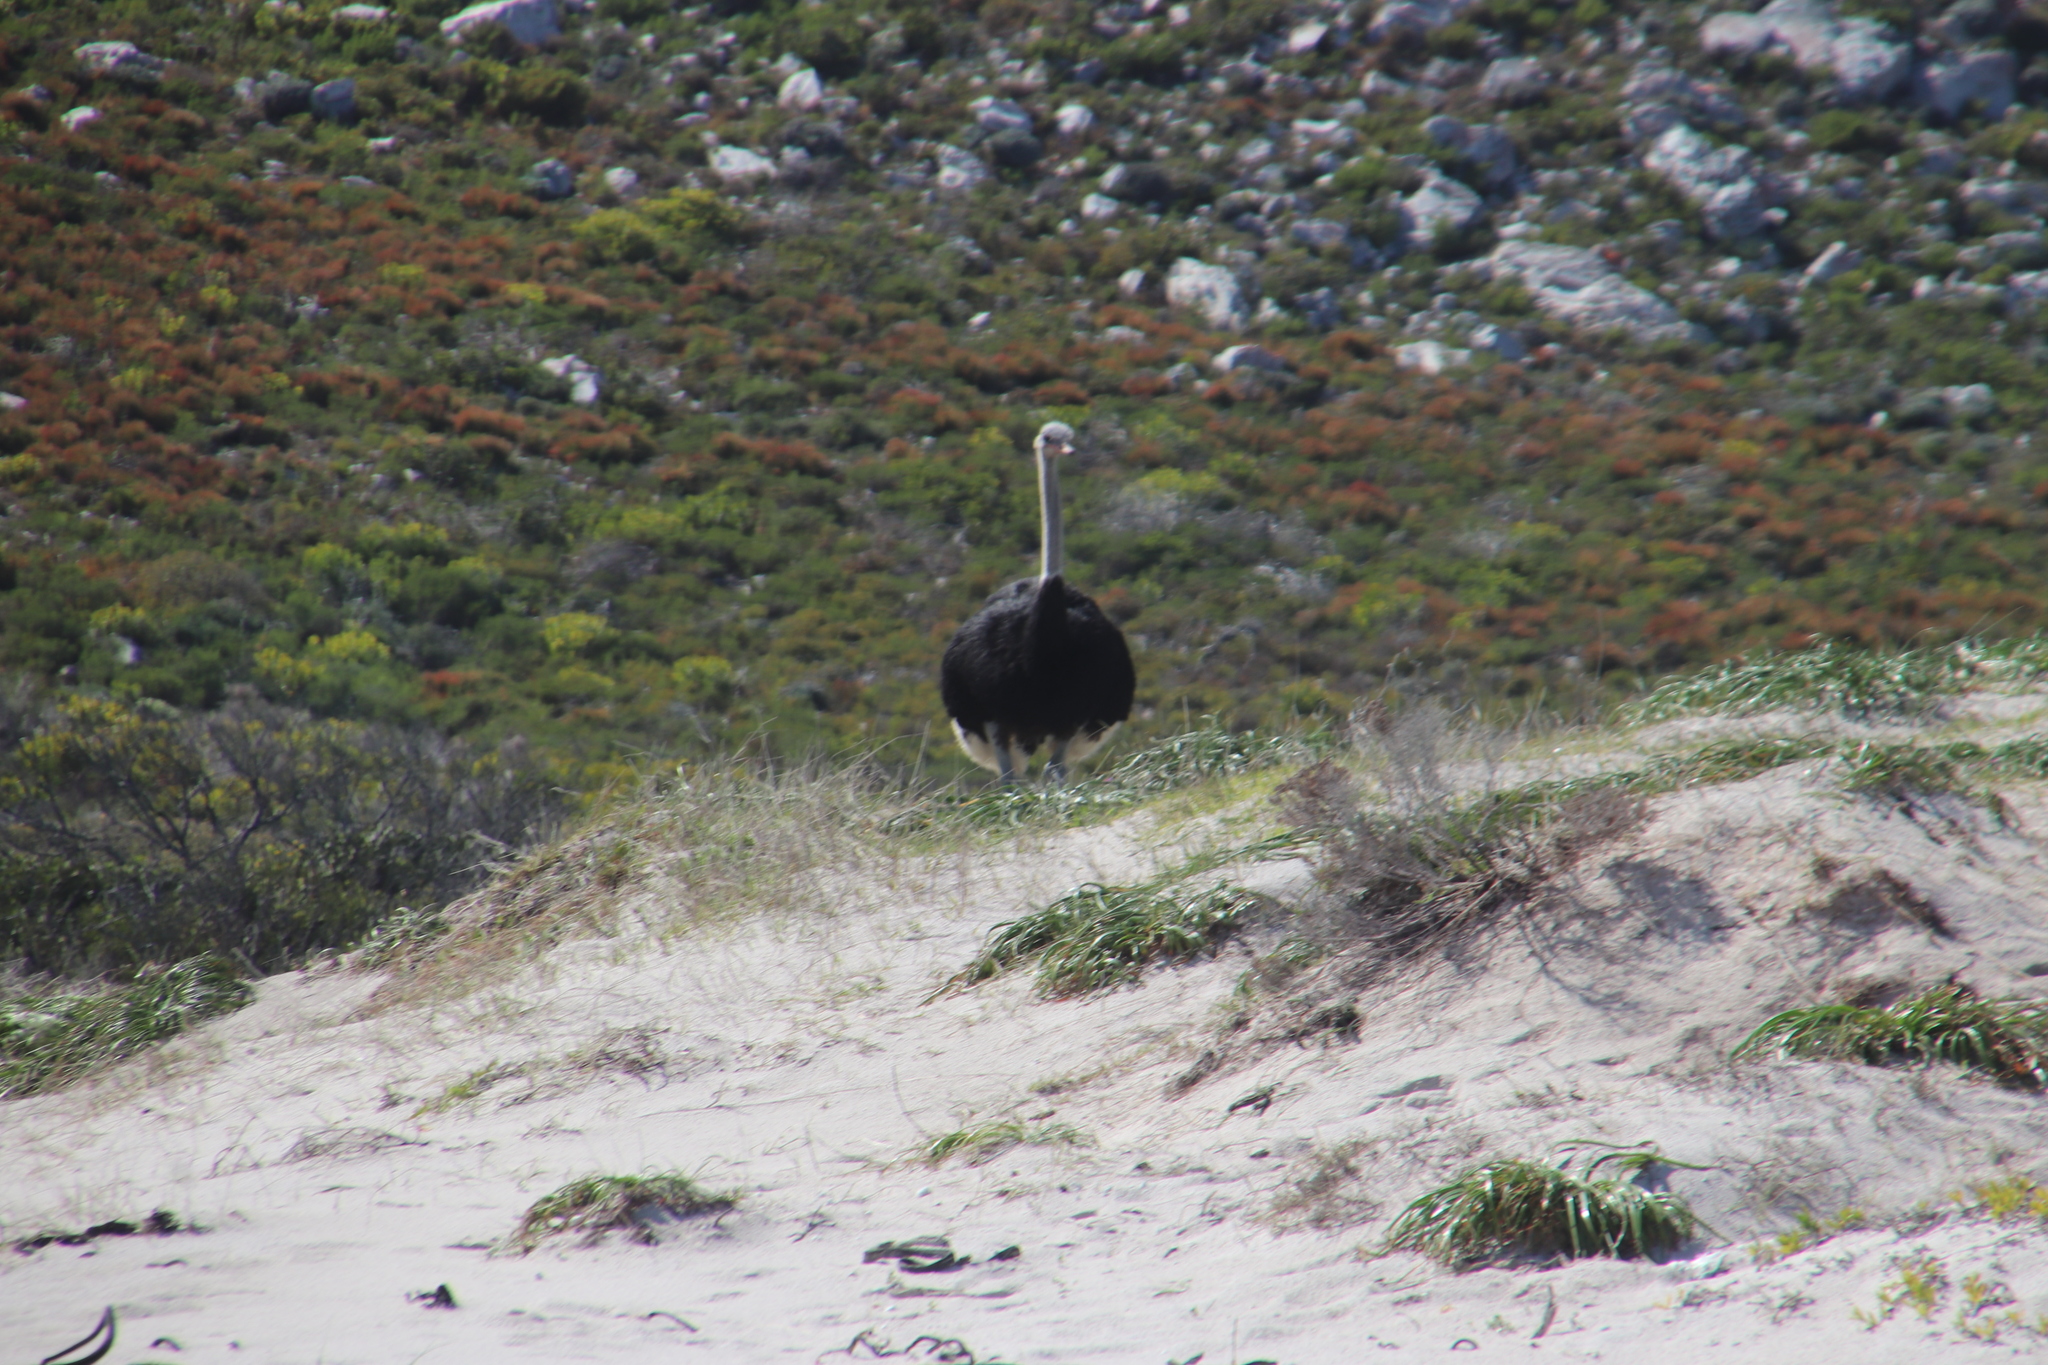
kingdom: Animalia
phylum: Chordata
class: Aves
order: Struthioniformes
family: Struthionidae
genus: Struthio
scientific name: Struthio camelus
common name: Common ostrich
